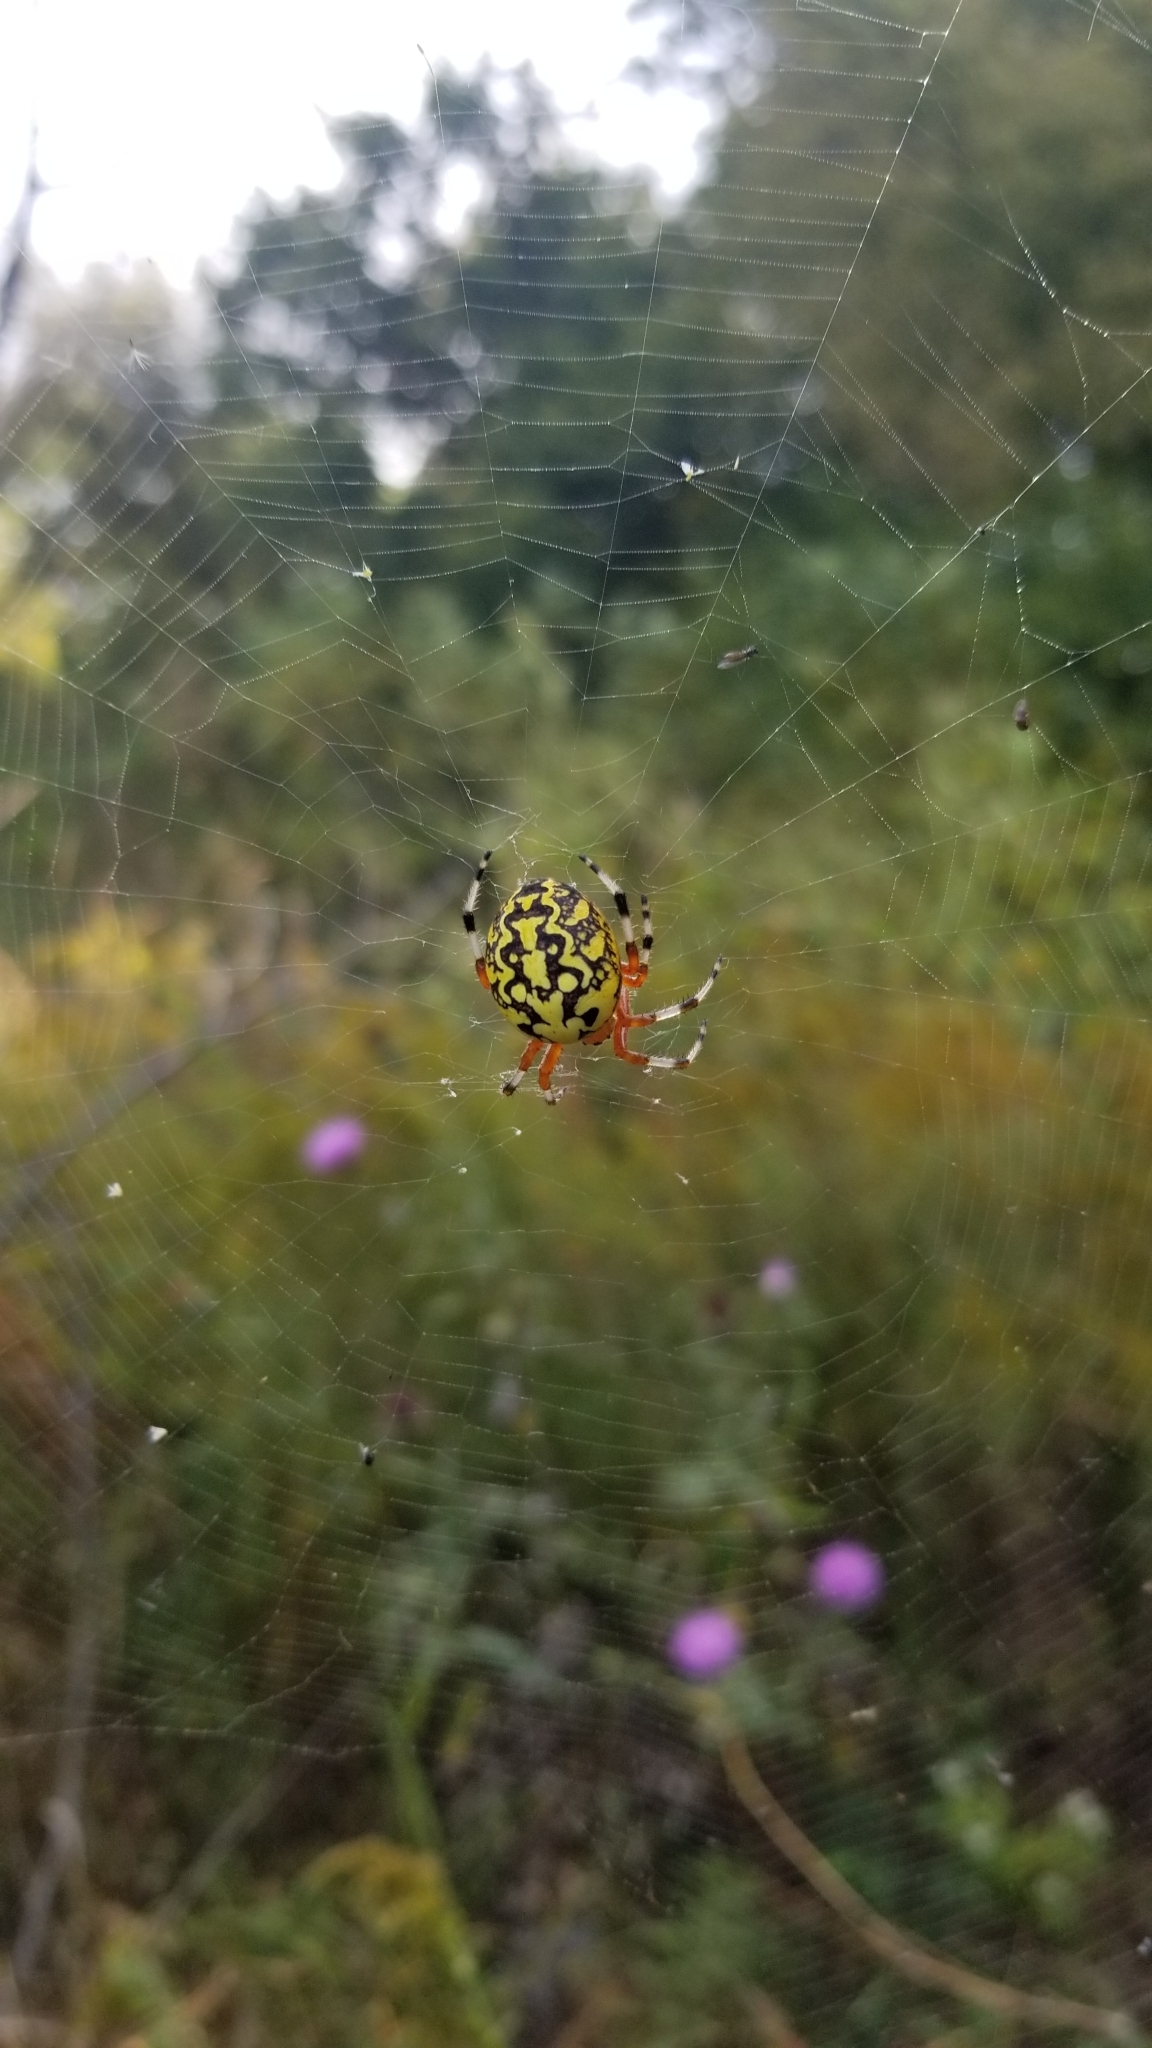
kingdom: Animalia
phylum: Arthropoda
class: Arachnida
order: Araneae
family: Araneidae
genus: Araneus
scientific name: Araneus marmoreus
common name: Marbled orbweaver
